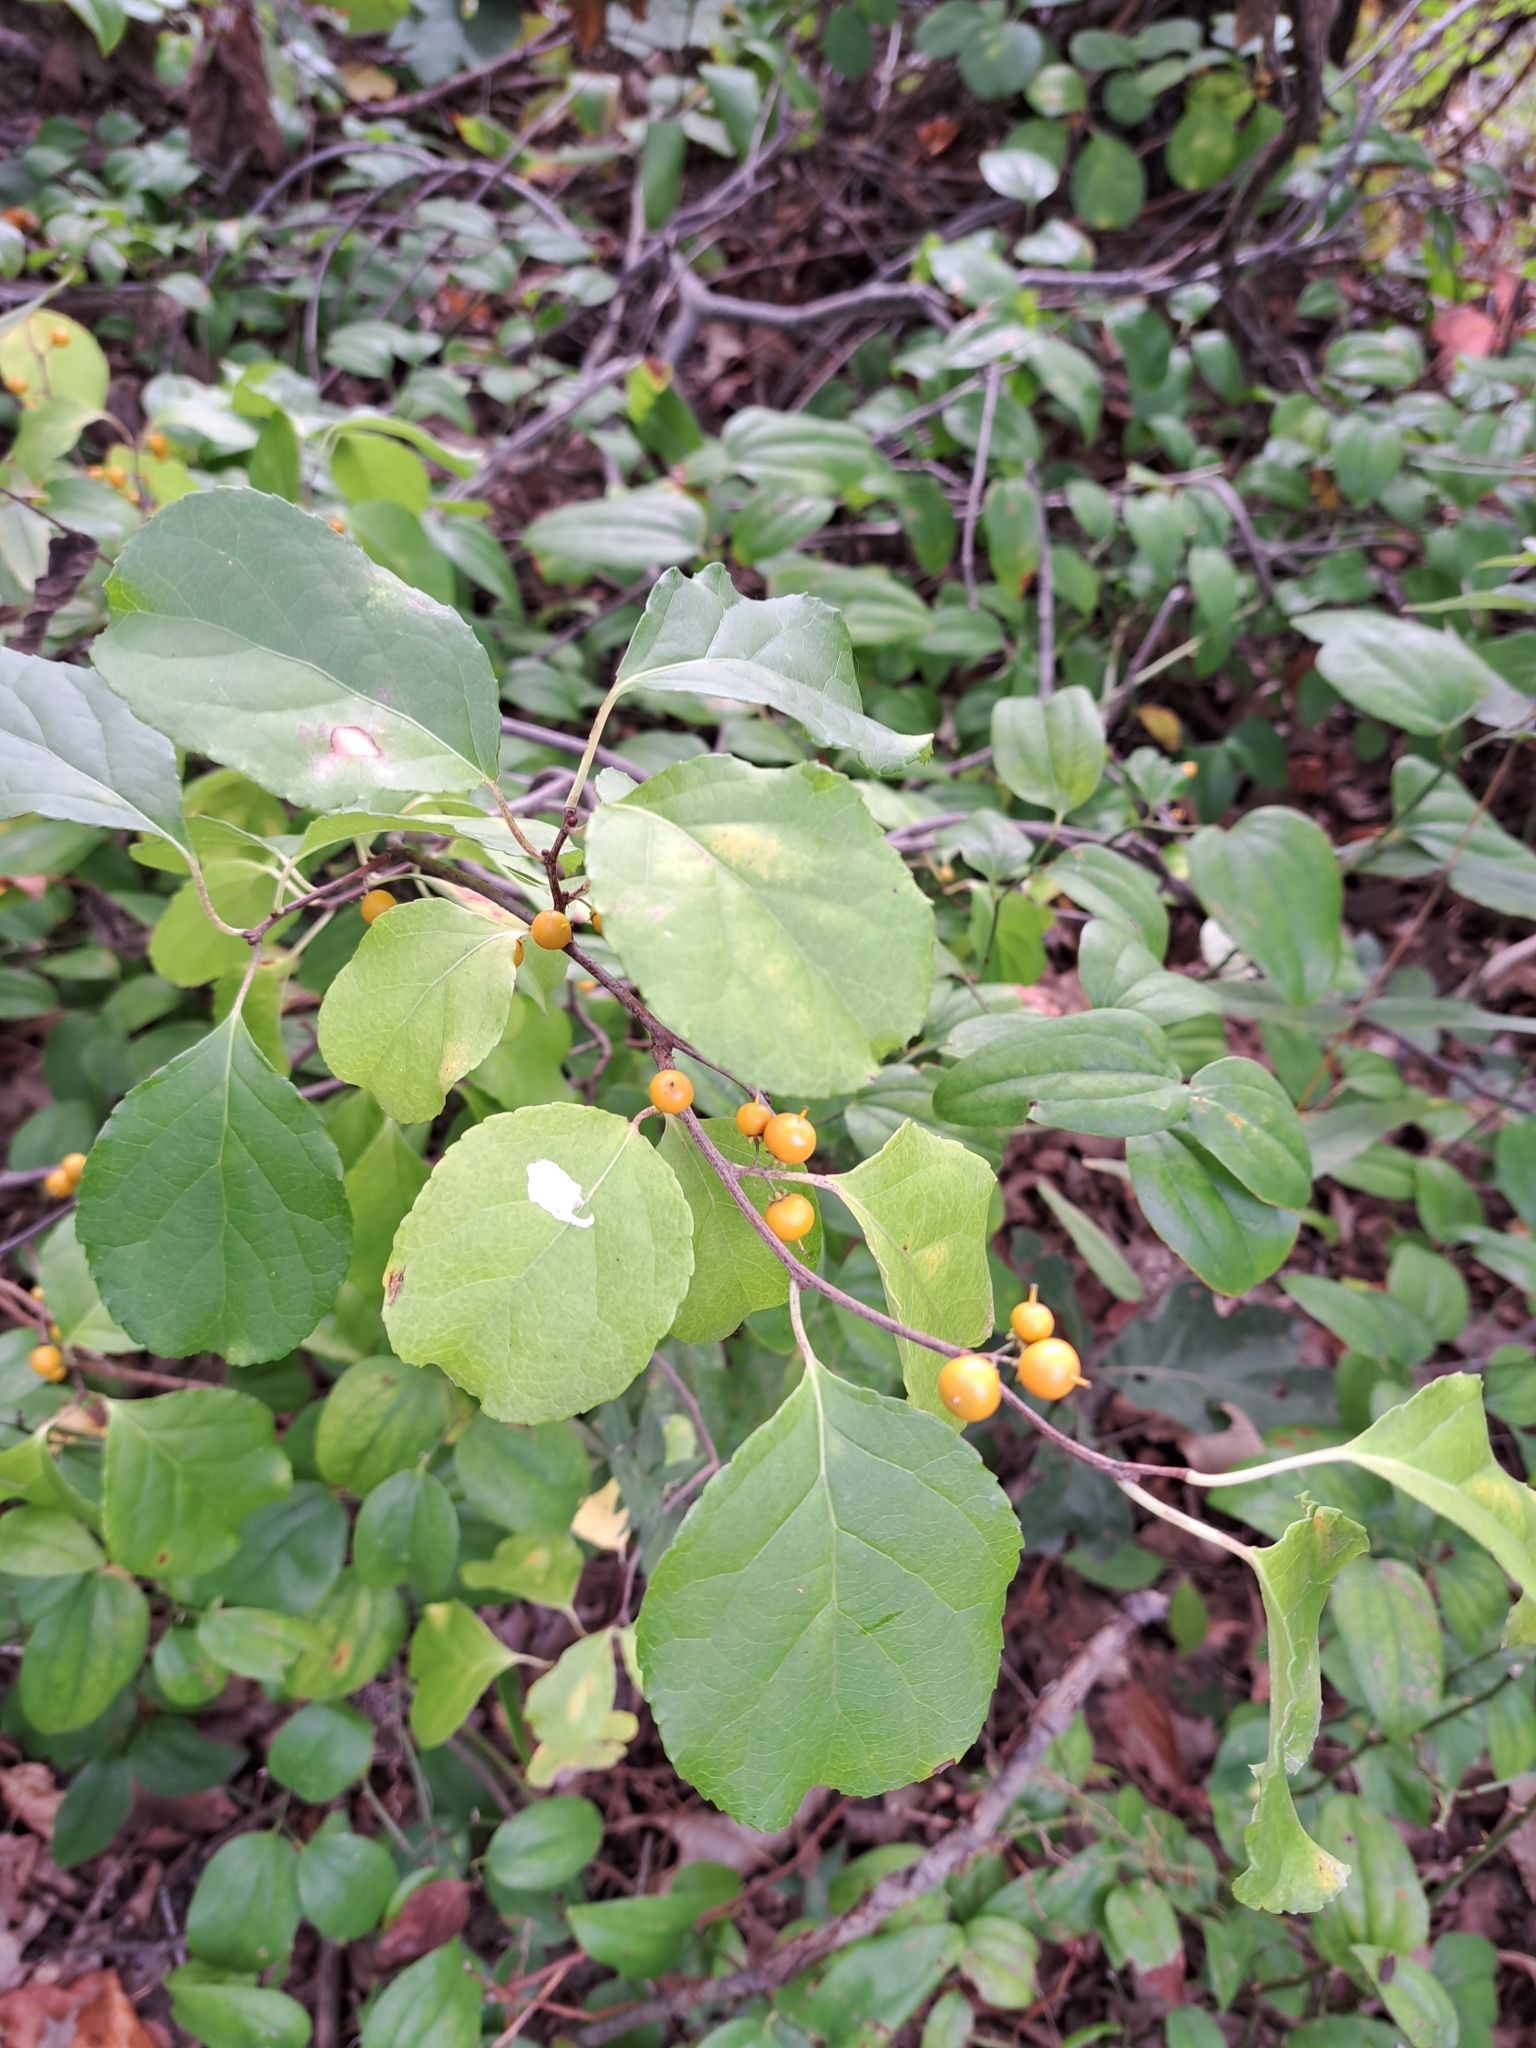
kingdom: Plantae
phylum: Tracheophyta
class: Magnoliopsida
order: Celastrales
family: Celastraceae
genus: Celastrus
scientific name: Celastrus orbiculatus
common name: Oriental bittersweet
